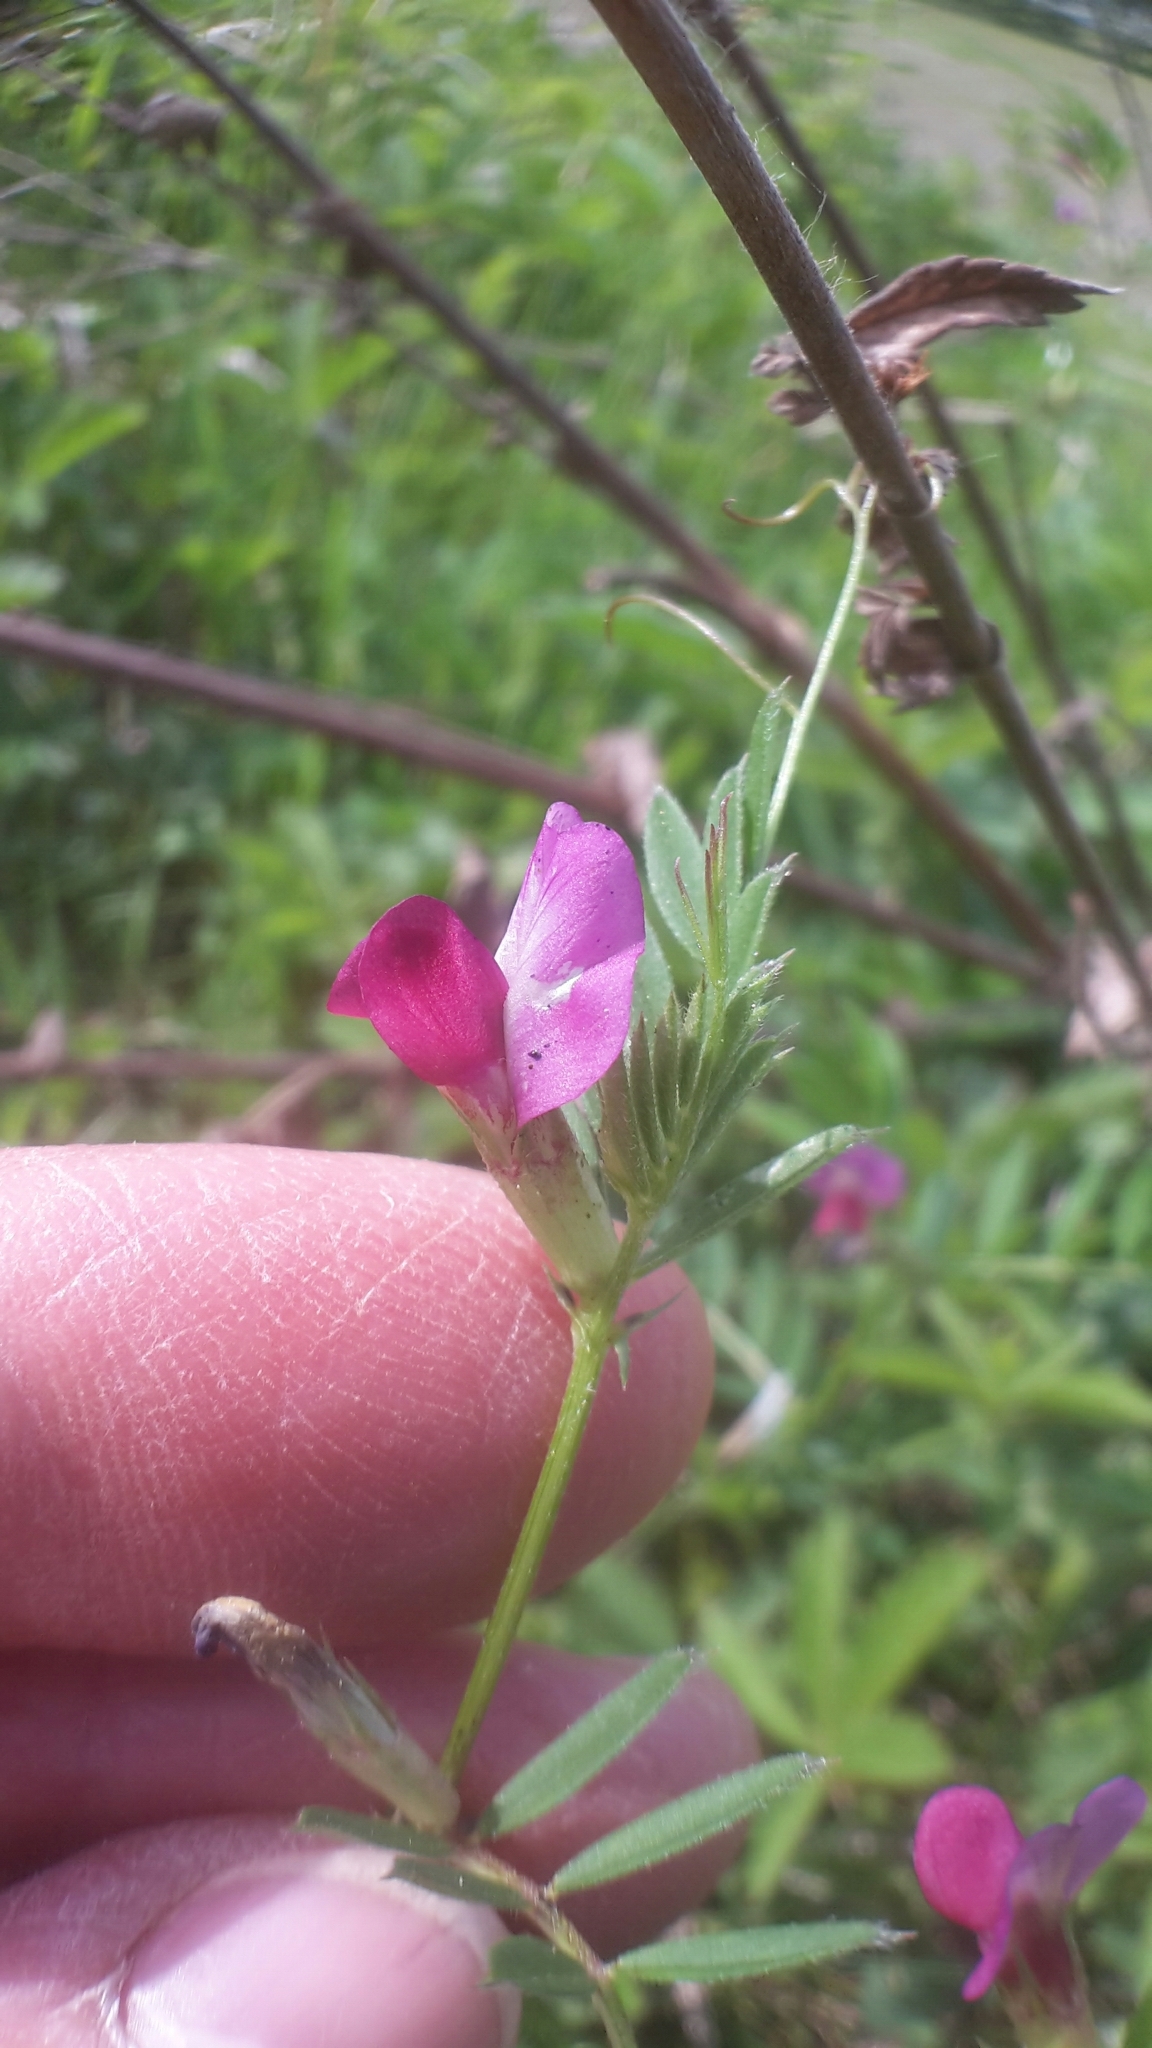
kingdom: Plantae
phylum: Tracheophyta
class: Magnoliopsida
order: Fabales
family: Fabaceae
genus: Vicia
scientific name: Vicia sativa
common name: Garden vetch
